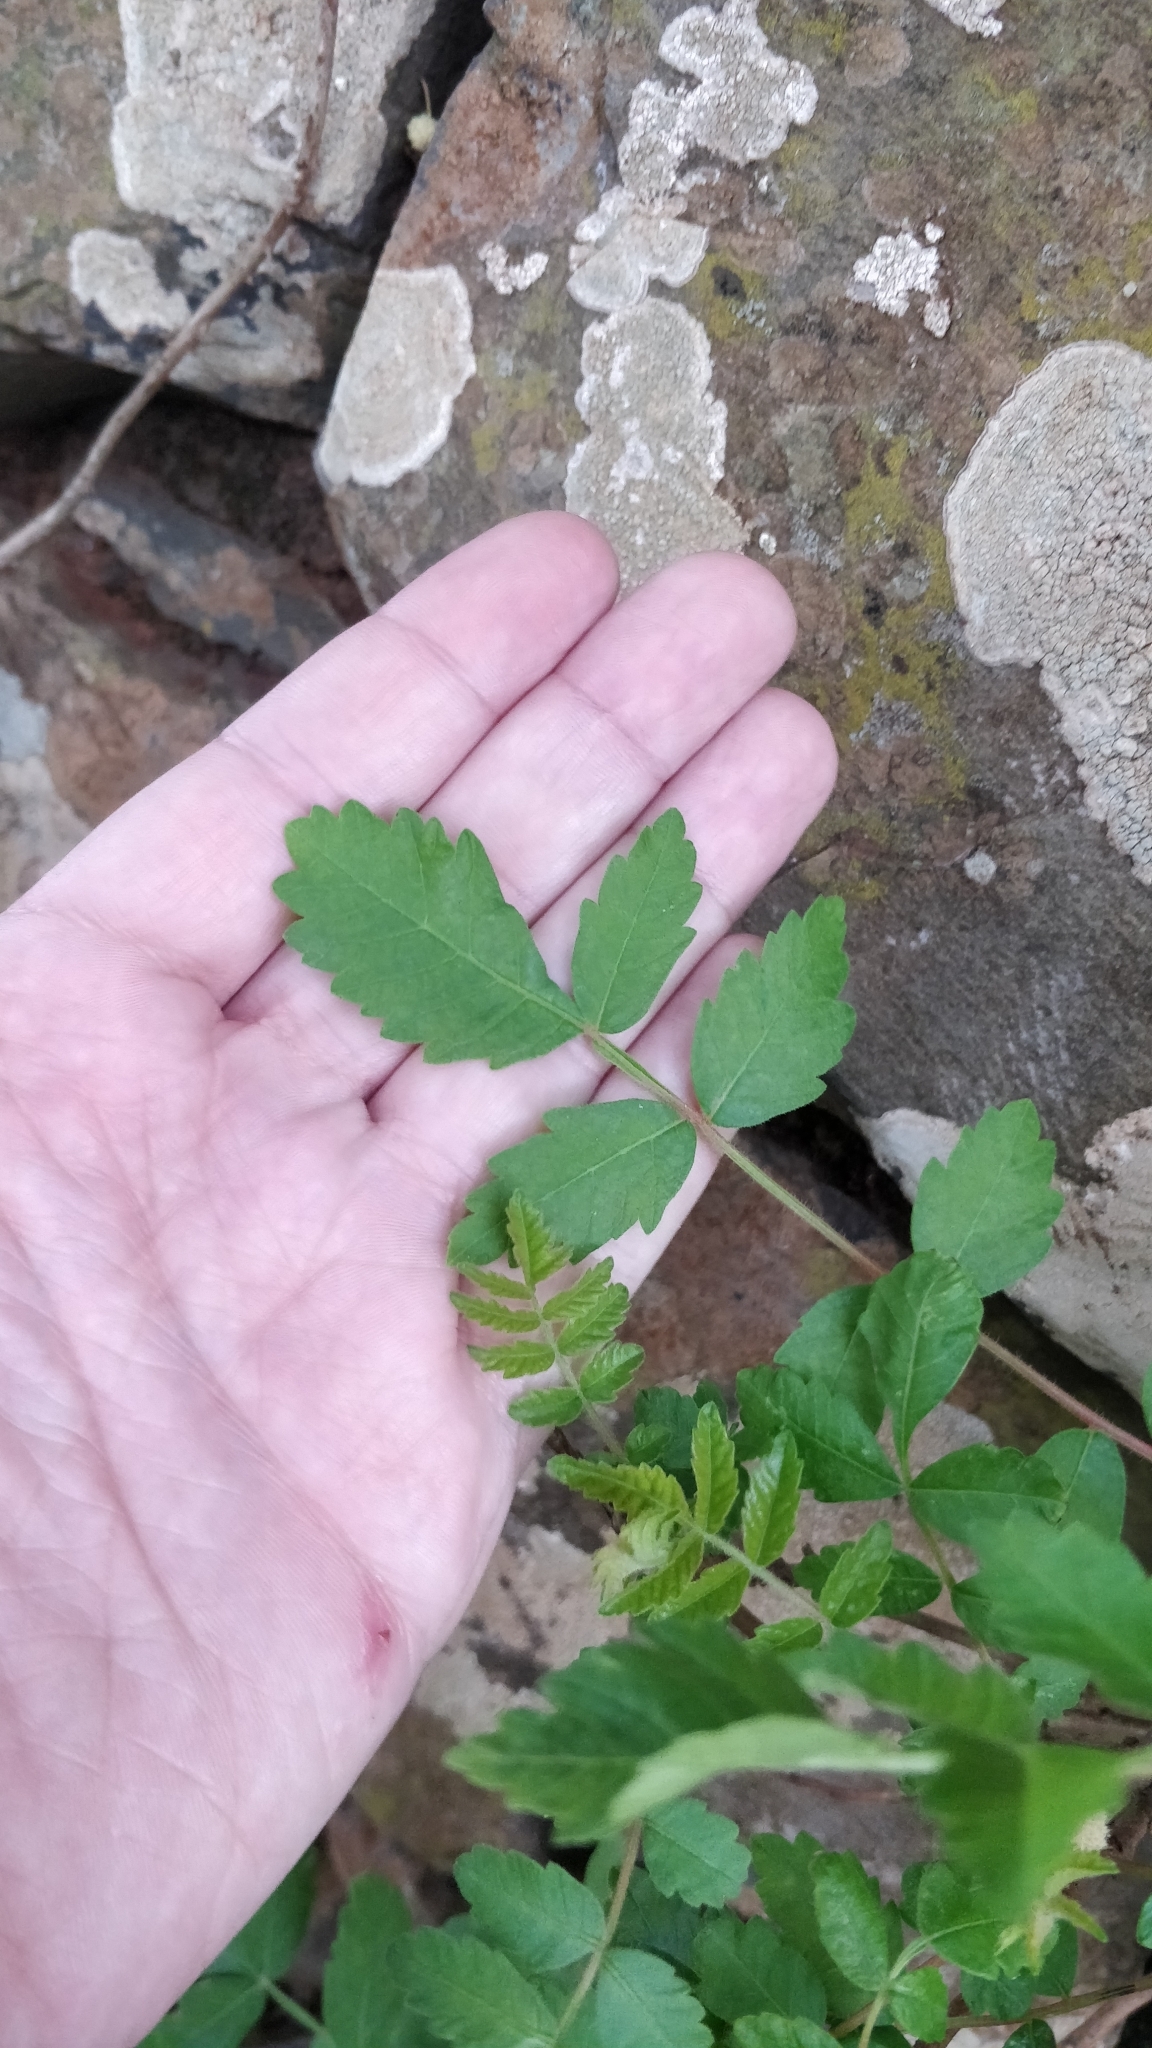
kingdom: Plantae
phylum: Tracheophyta
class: Magnoliopsida
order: Sapindales
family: Anacardiaceae
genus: Rhus
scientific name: Rhus coriaria
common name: Tanner's sumach
